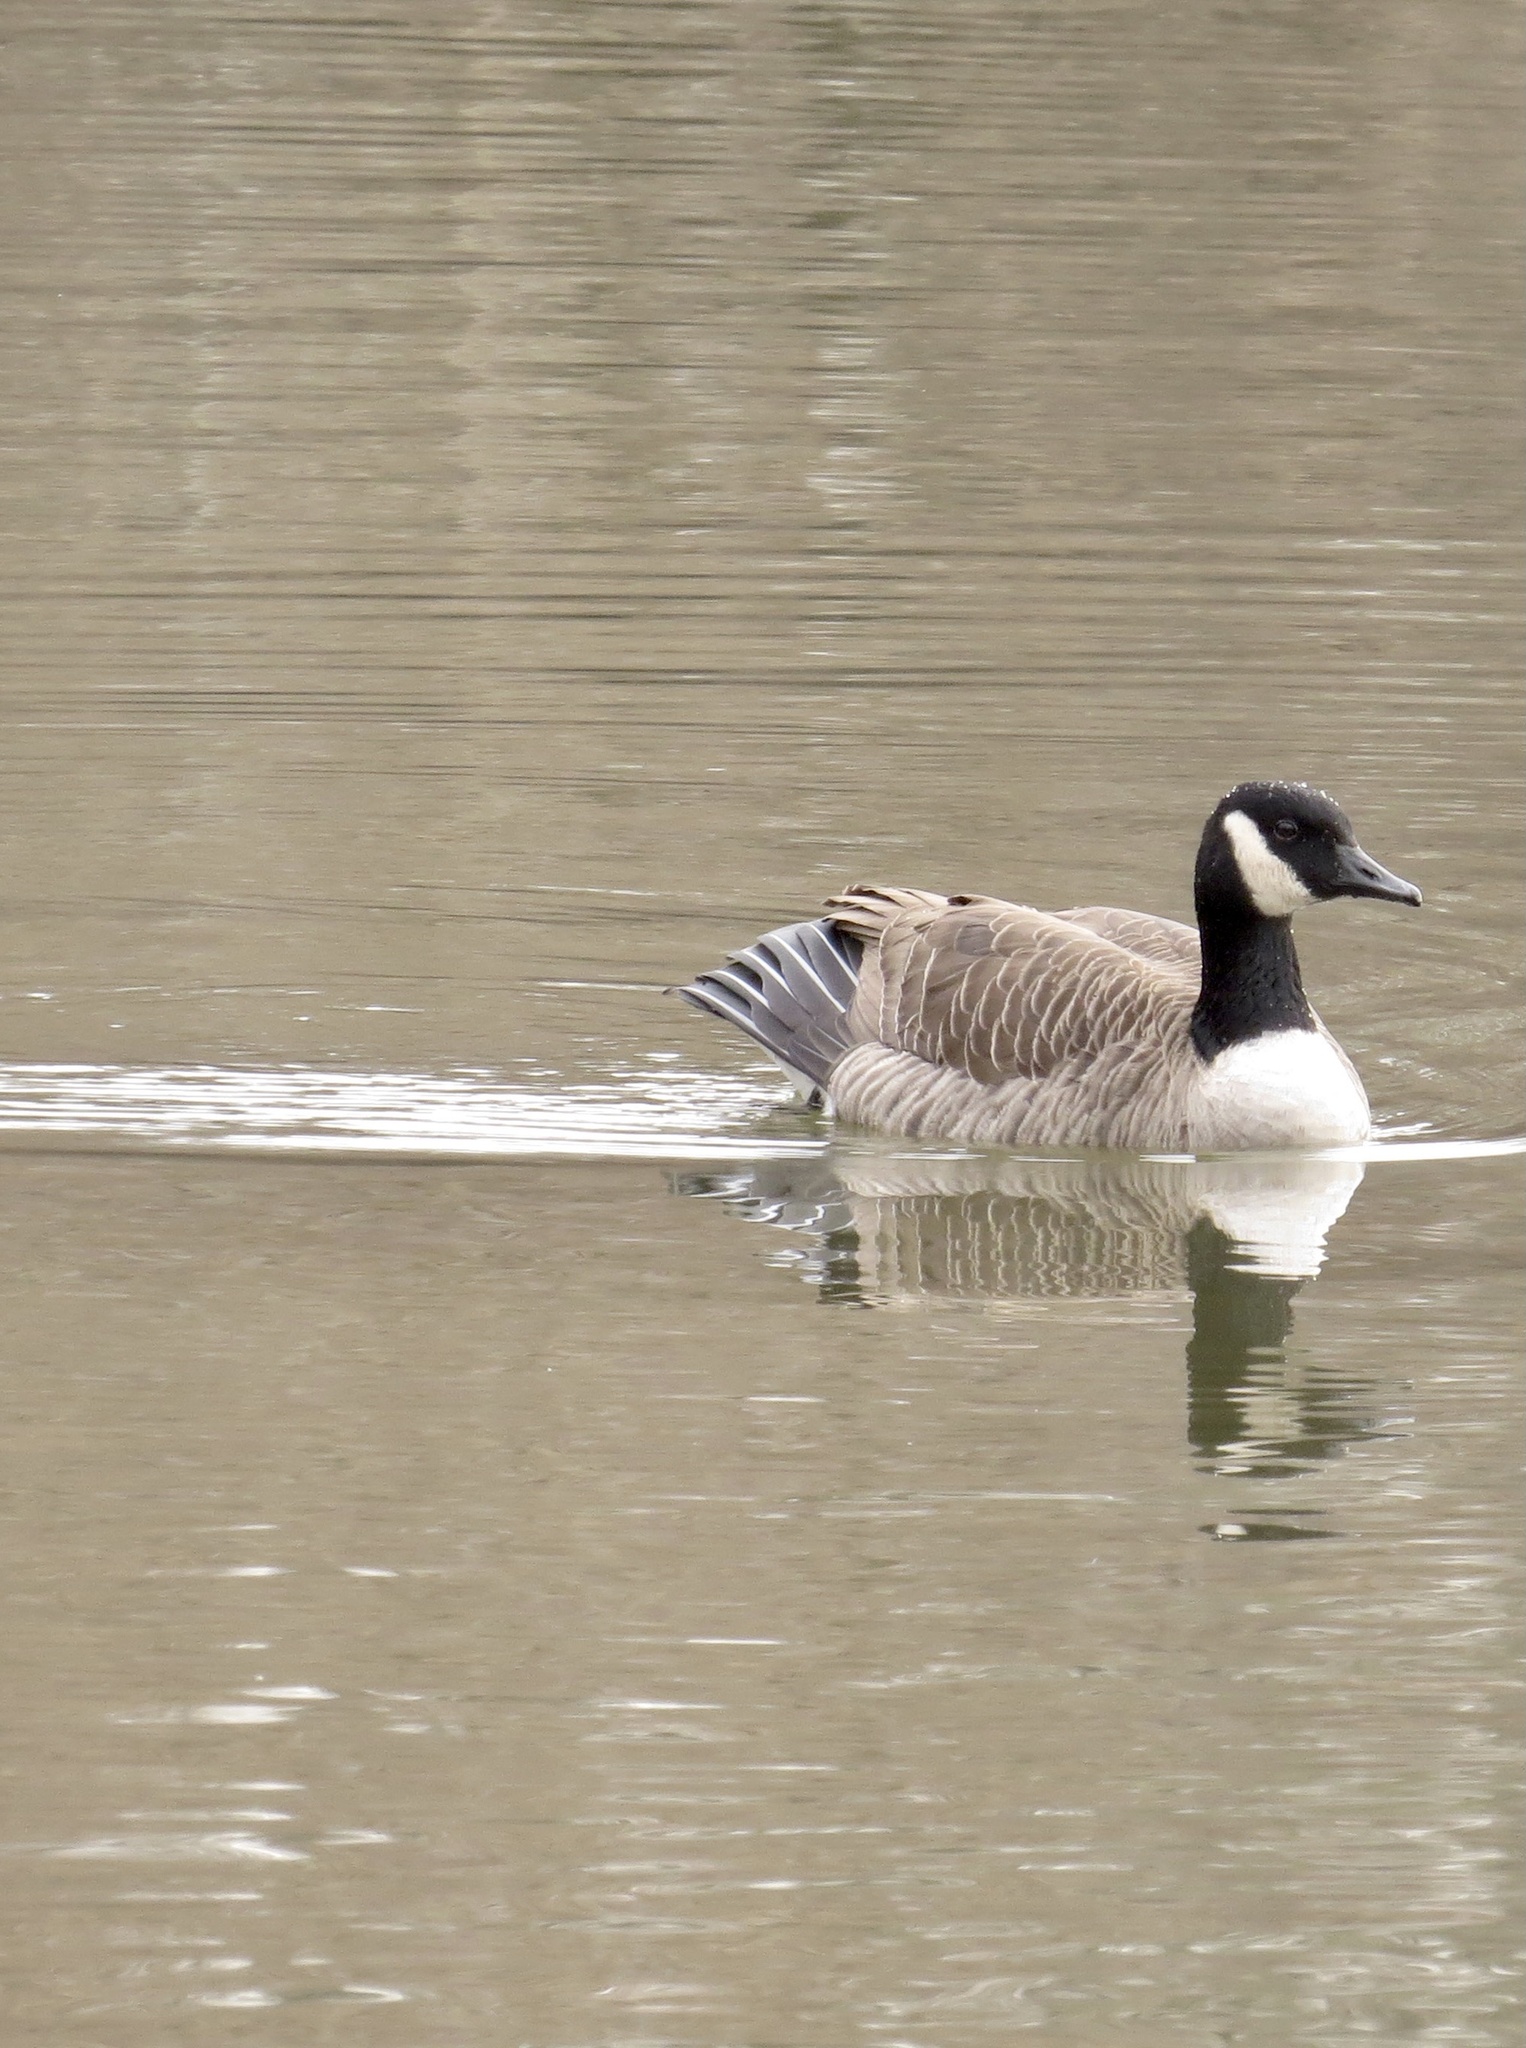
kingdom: Animalia
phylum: Chordata
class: Aves
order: Anseriformes
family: Anatidae
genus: Branta
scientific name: Branta canadensis
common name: Canada goose
